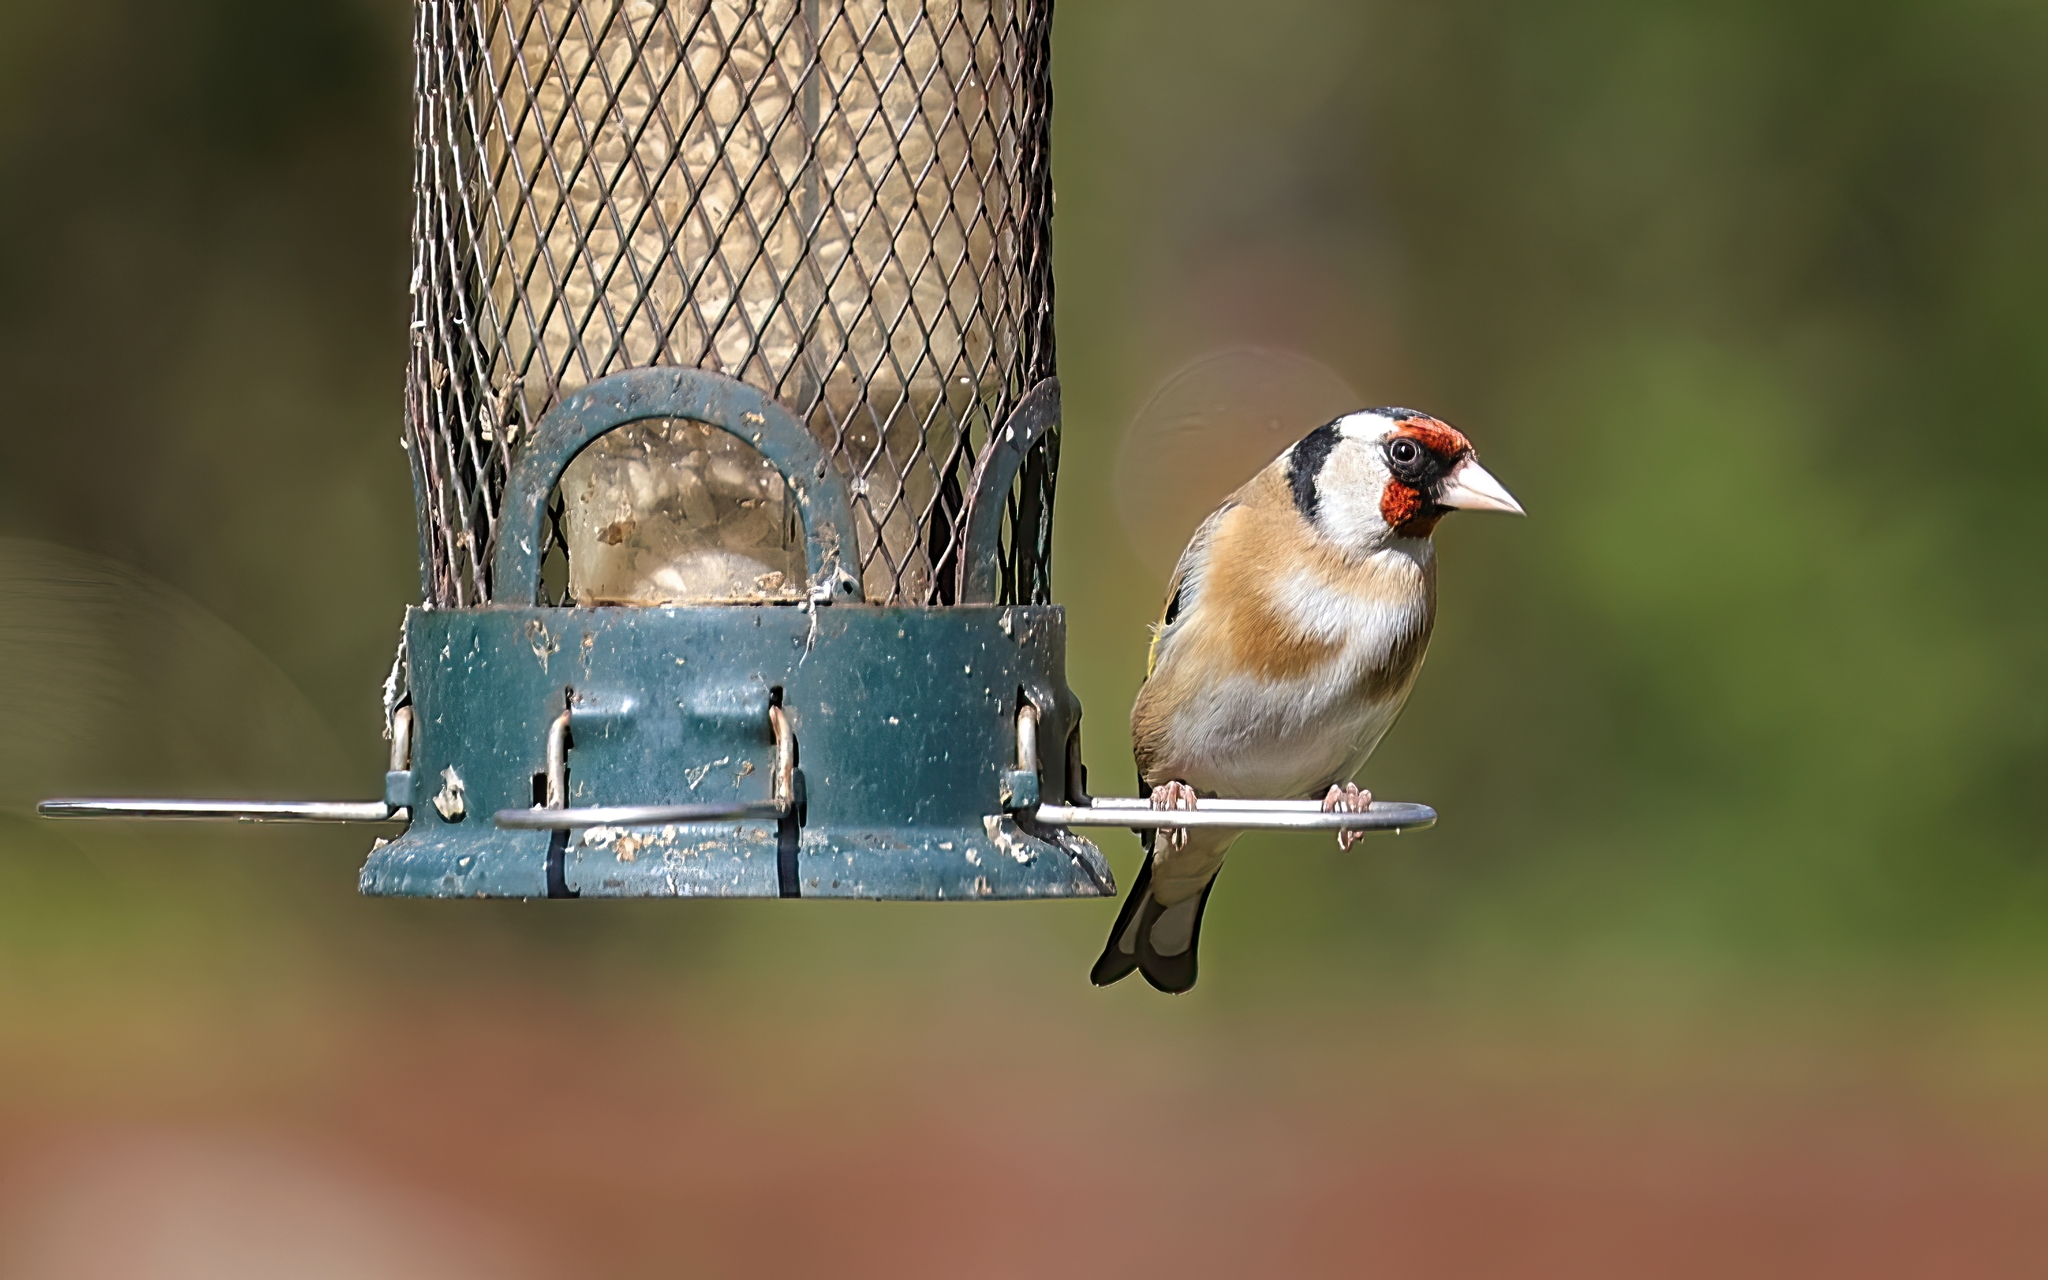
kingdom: Animalia
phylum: Chordata
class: Aves
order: Passeriformes
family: Fringillidae
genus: Carduelis
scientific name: Carduelis carduelis
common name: European goldfinch
